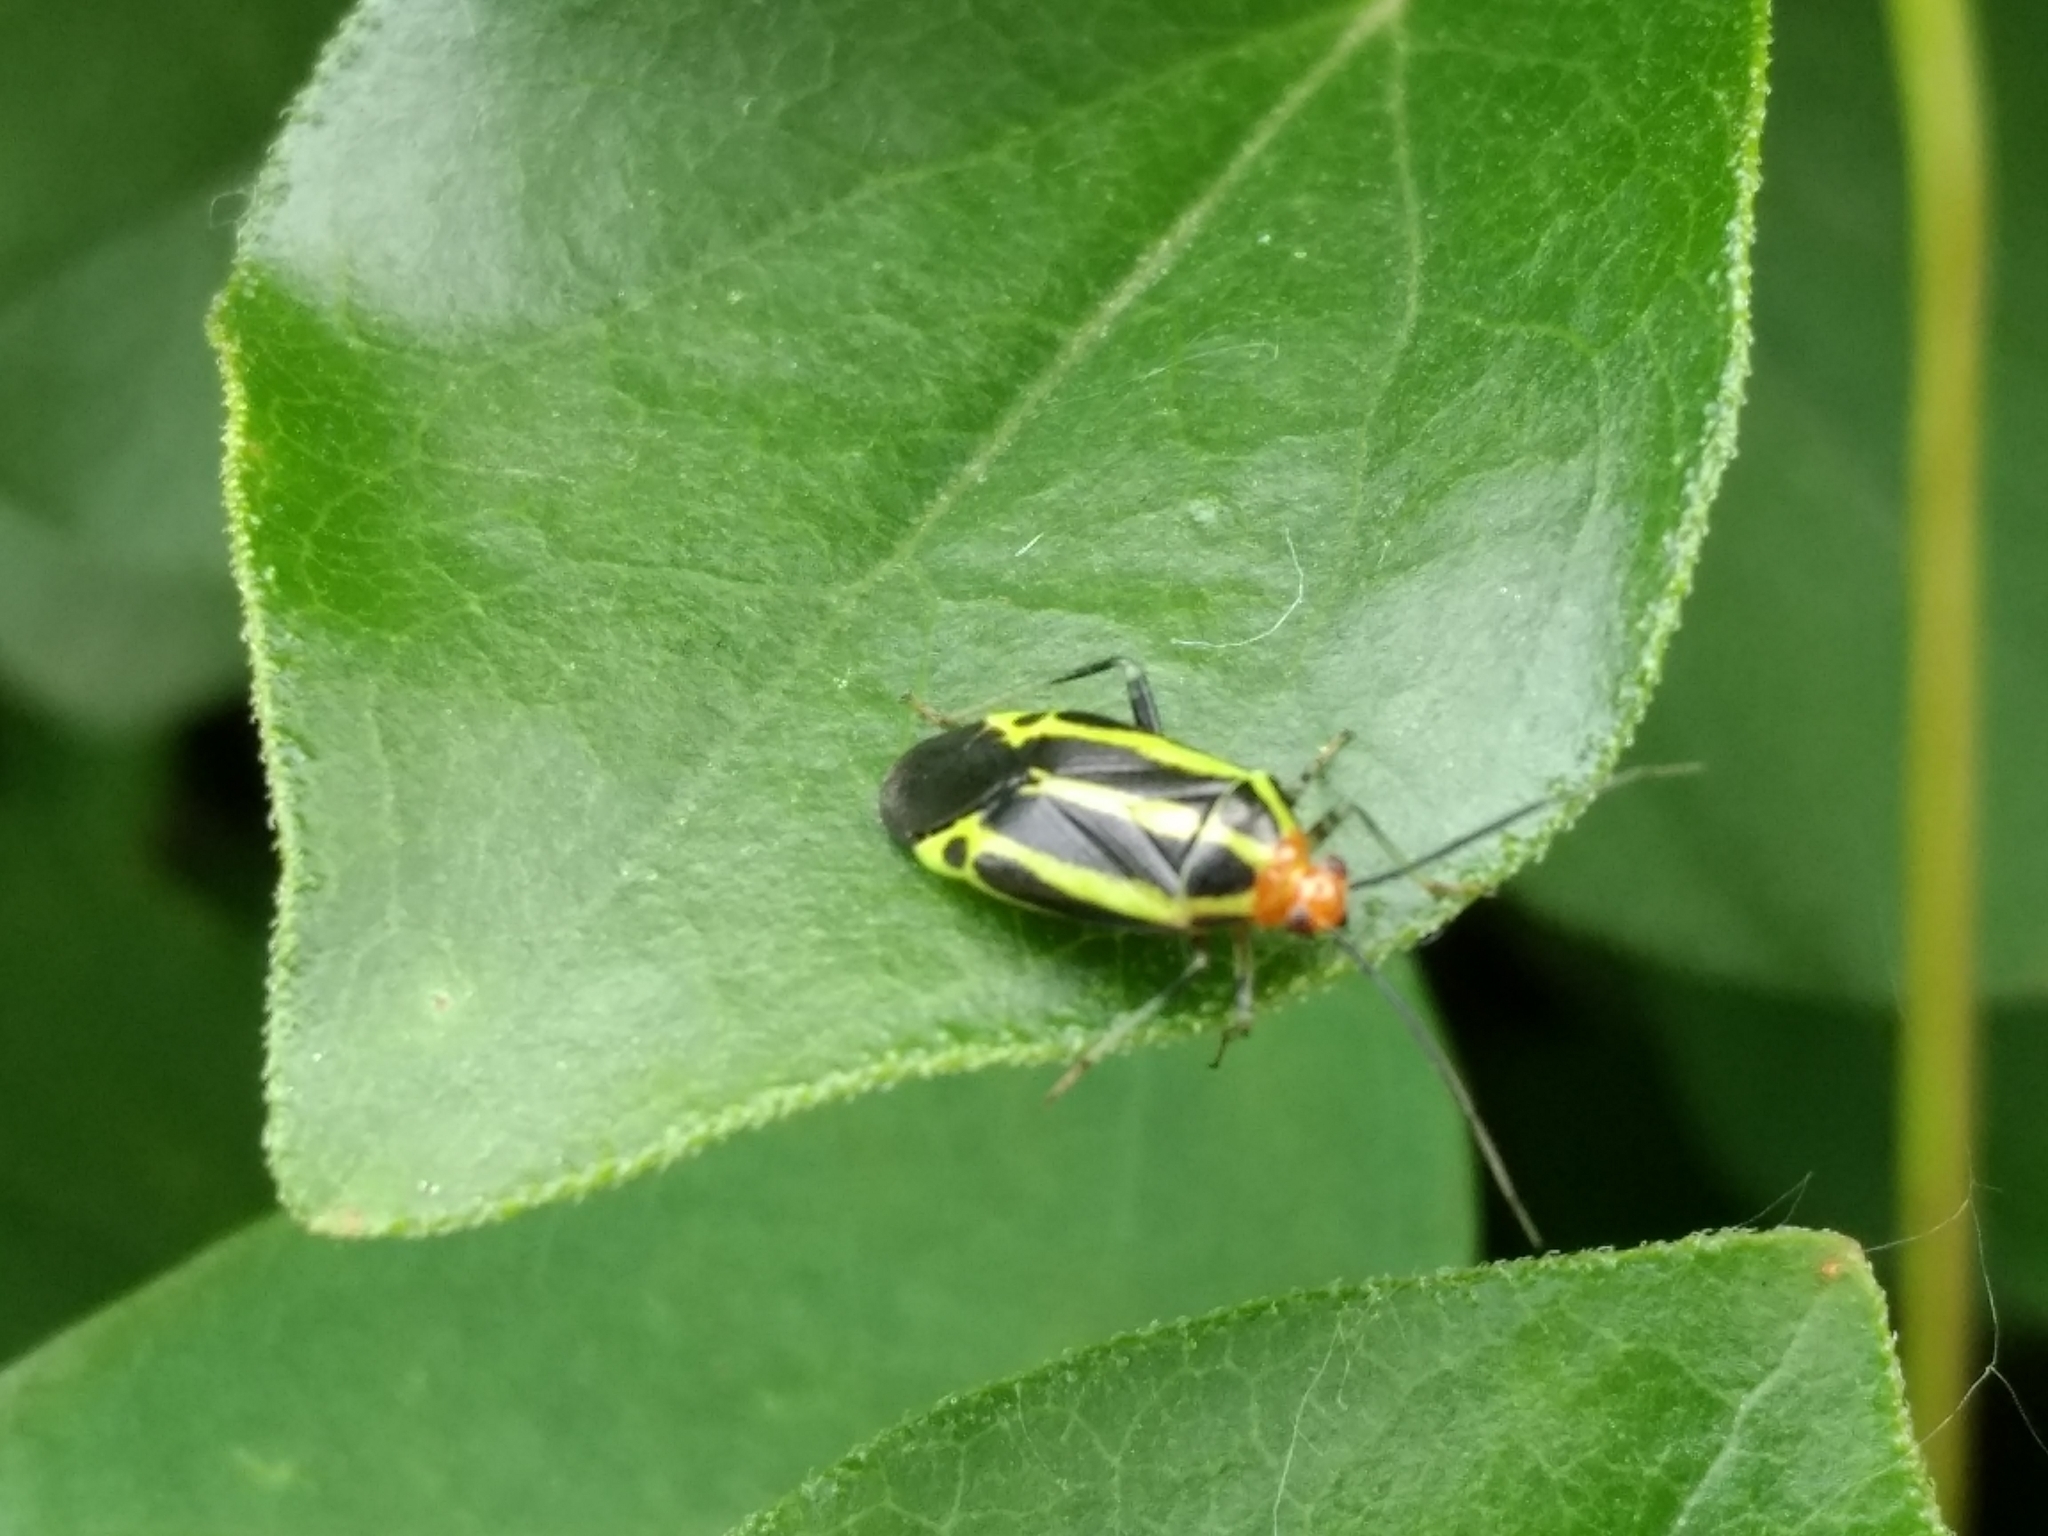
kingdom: Animalia
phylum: Arthropoda
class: Insecta
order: Hemiptera
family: Miridae
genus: Poecilocapsus
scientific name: Poecilocapsus lineatus
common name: Four-lined plant bug
